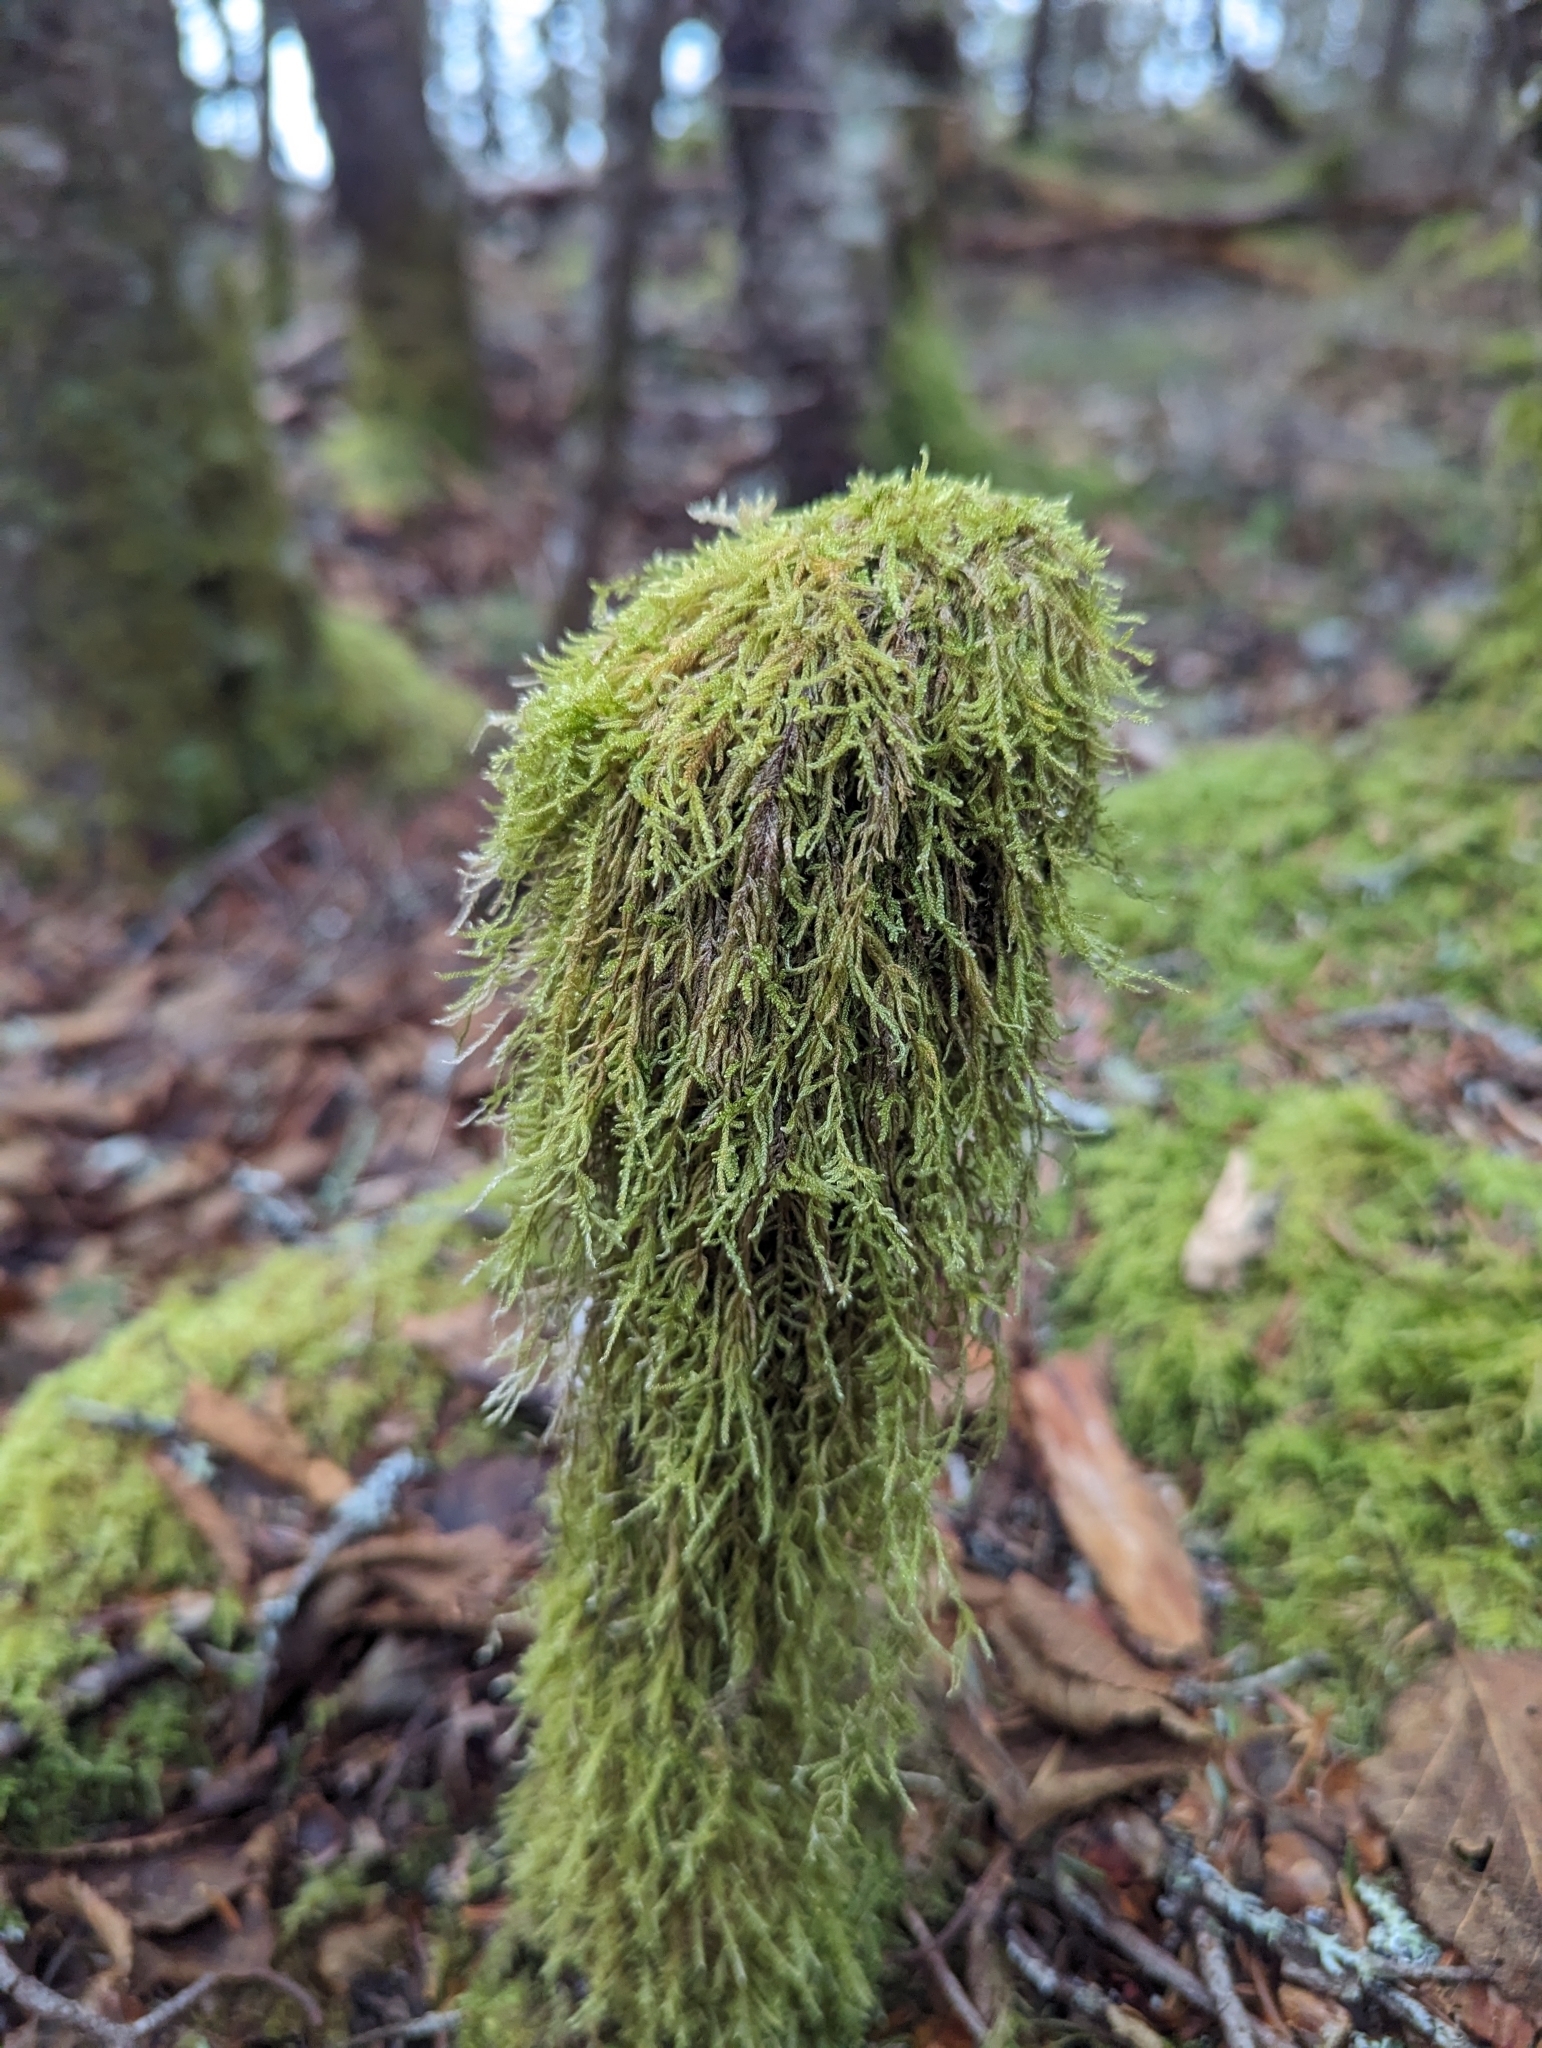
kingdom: Plantae
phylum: Bryophyta
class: Bryopsida
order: Hypnales
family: Callicladiaceae
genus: Callicladium
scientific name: Callicladium imponens
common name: Brocade moss
